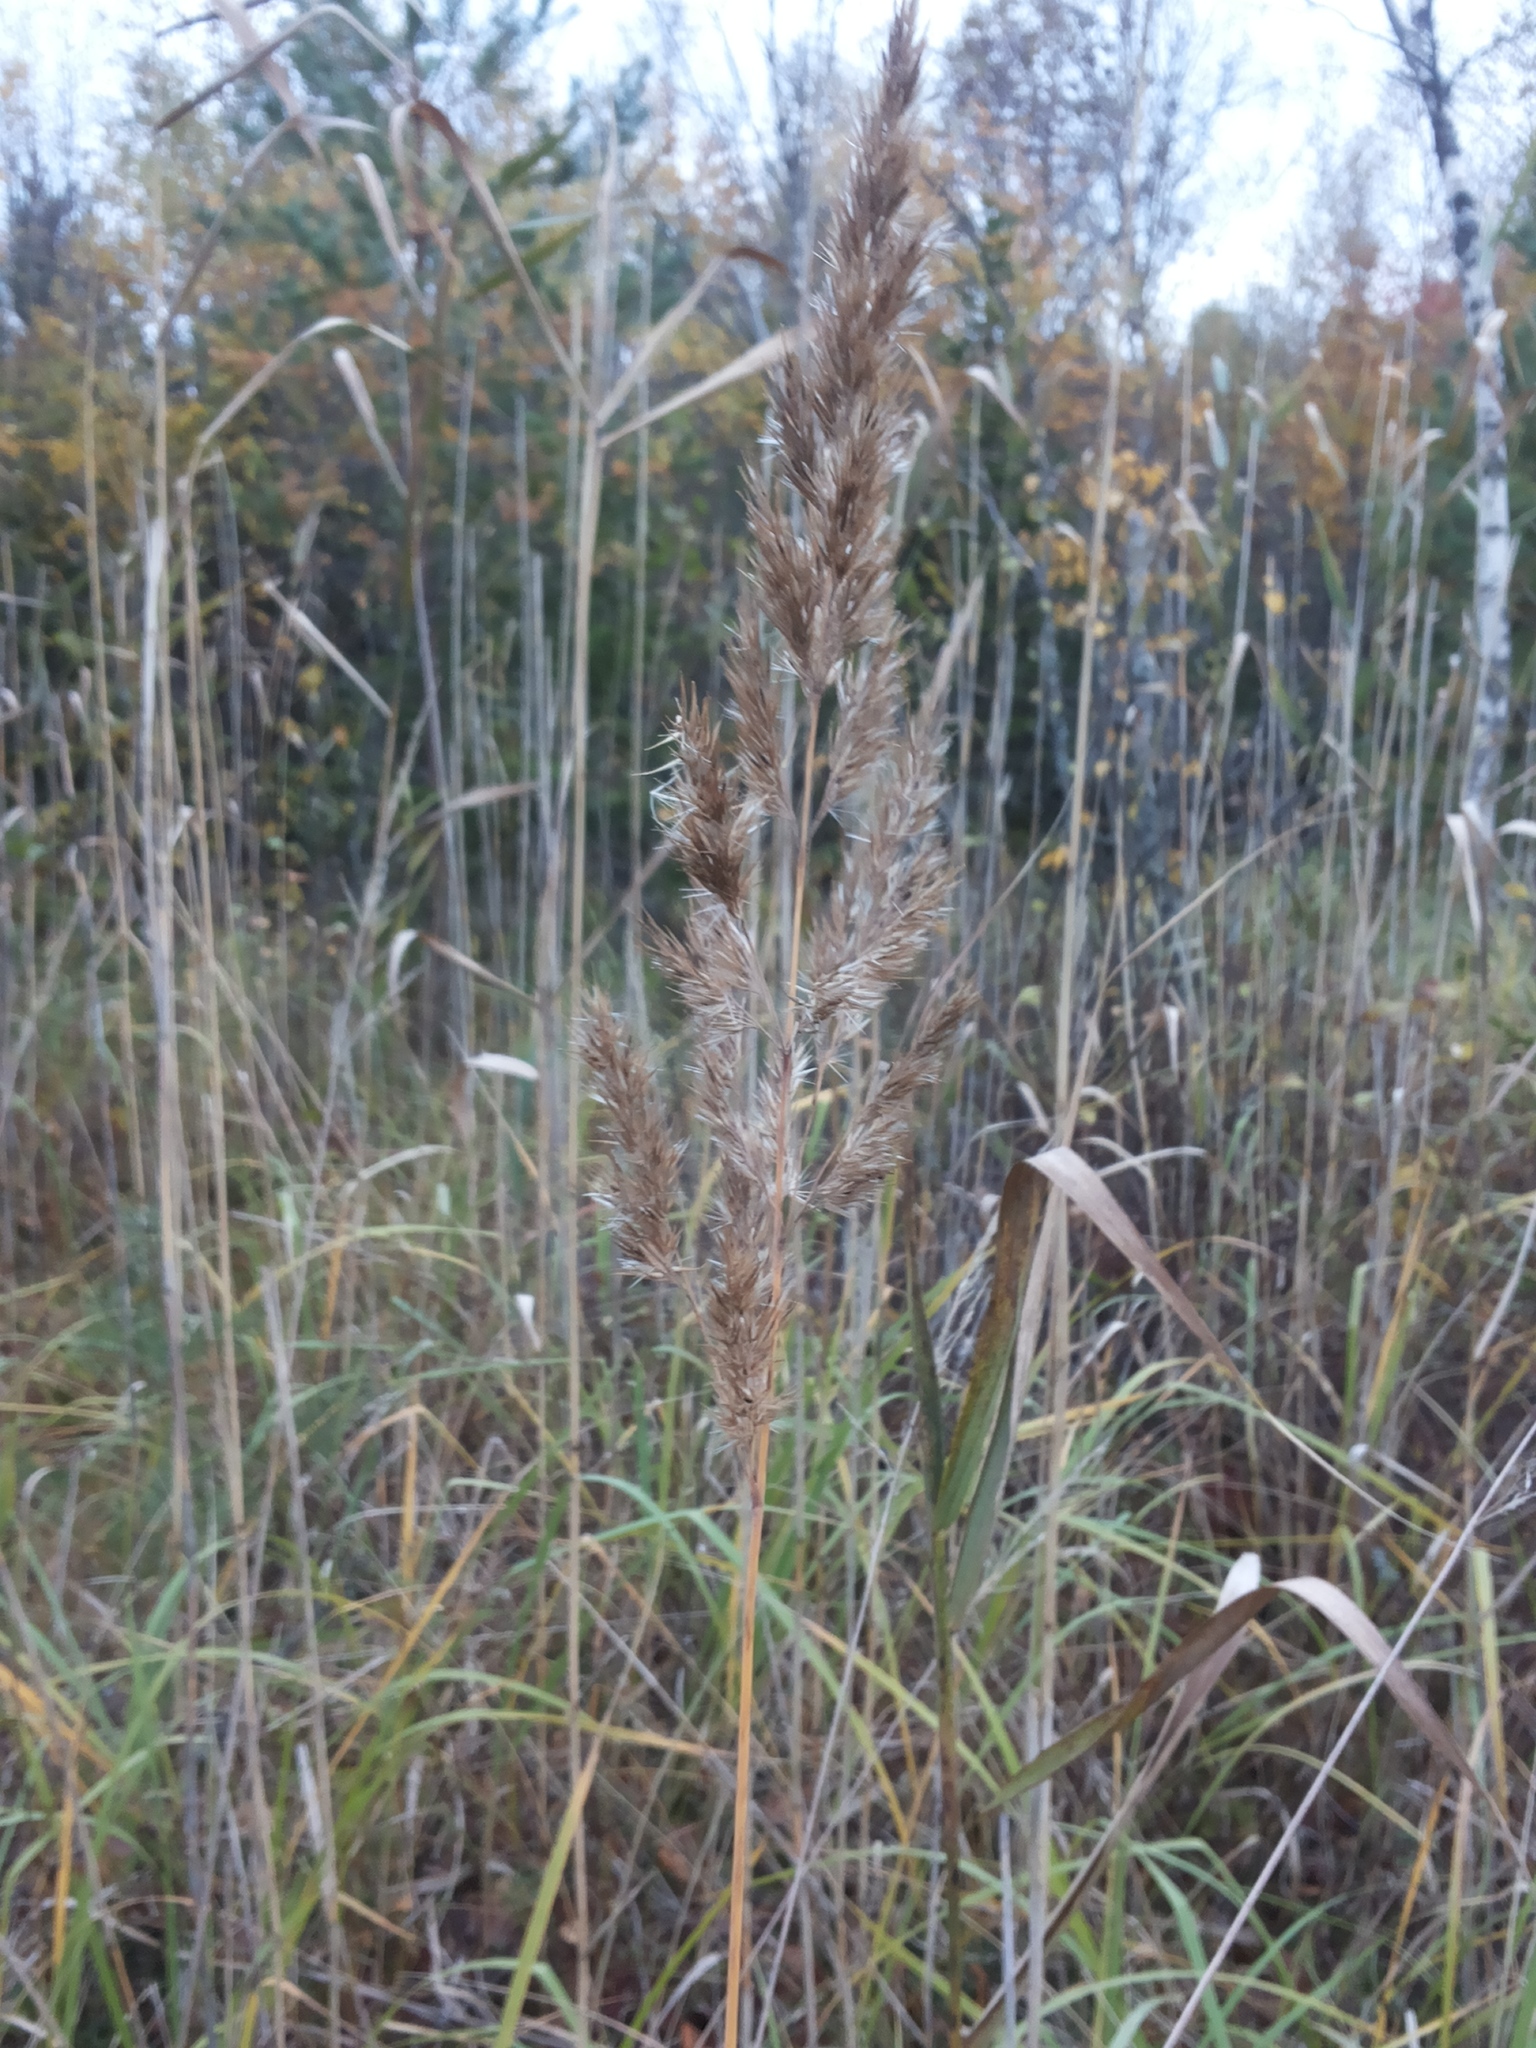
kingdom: Plantae
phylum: Tracheophyta
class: Liliopsida
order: Poales
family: Poaceae
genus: Phragmites
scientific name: Phragmites australis
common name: Common reed
